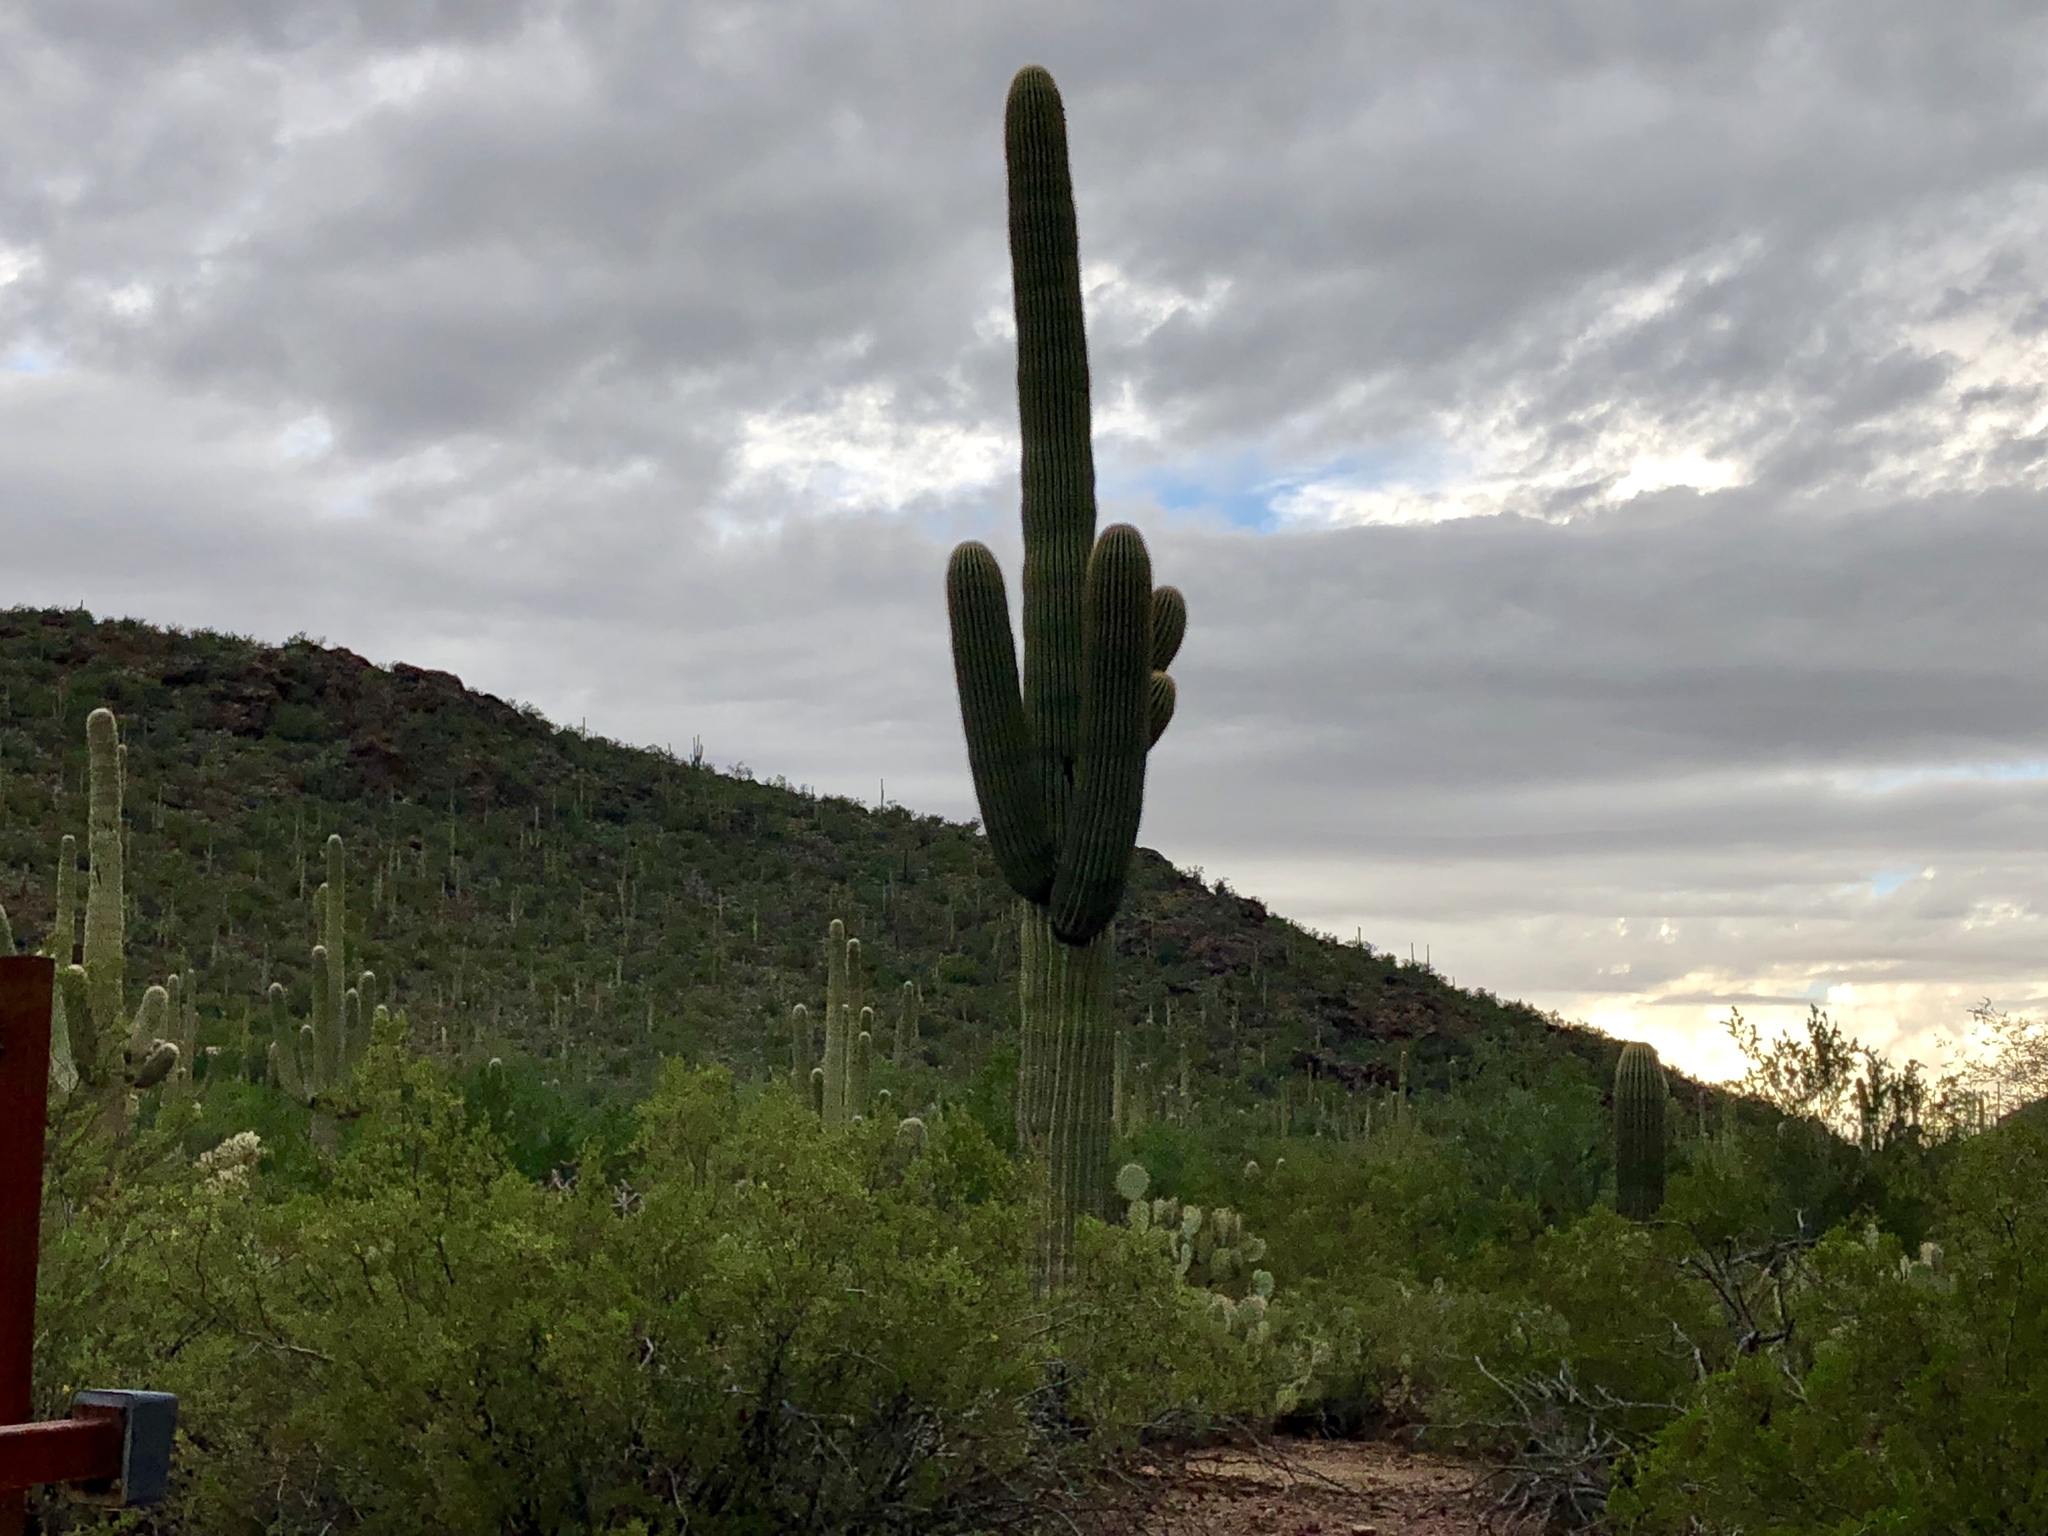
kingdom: Plantae
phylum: Tracheophyta
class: Magnoliopsida
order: Caryophyllales
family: Cactaceae
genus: Carnegiea
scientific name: Carnegiea gigantea
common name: Saguaro
